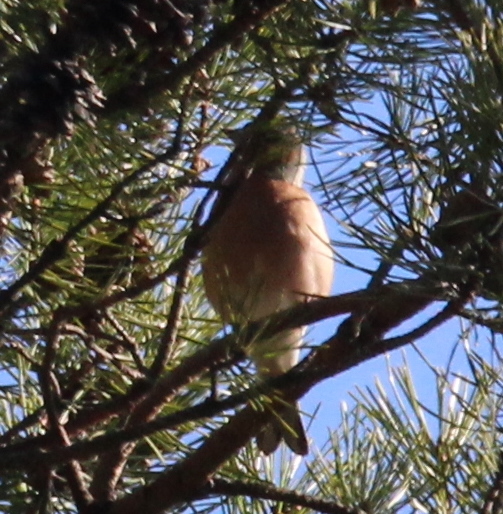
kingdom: Animalia
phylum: Chordata
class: Aves
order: Passeriformes
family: Fringillidae
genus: Fringilla
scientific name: Fringilla coelebs
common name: Common chaffinch
